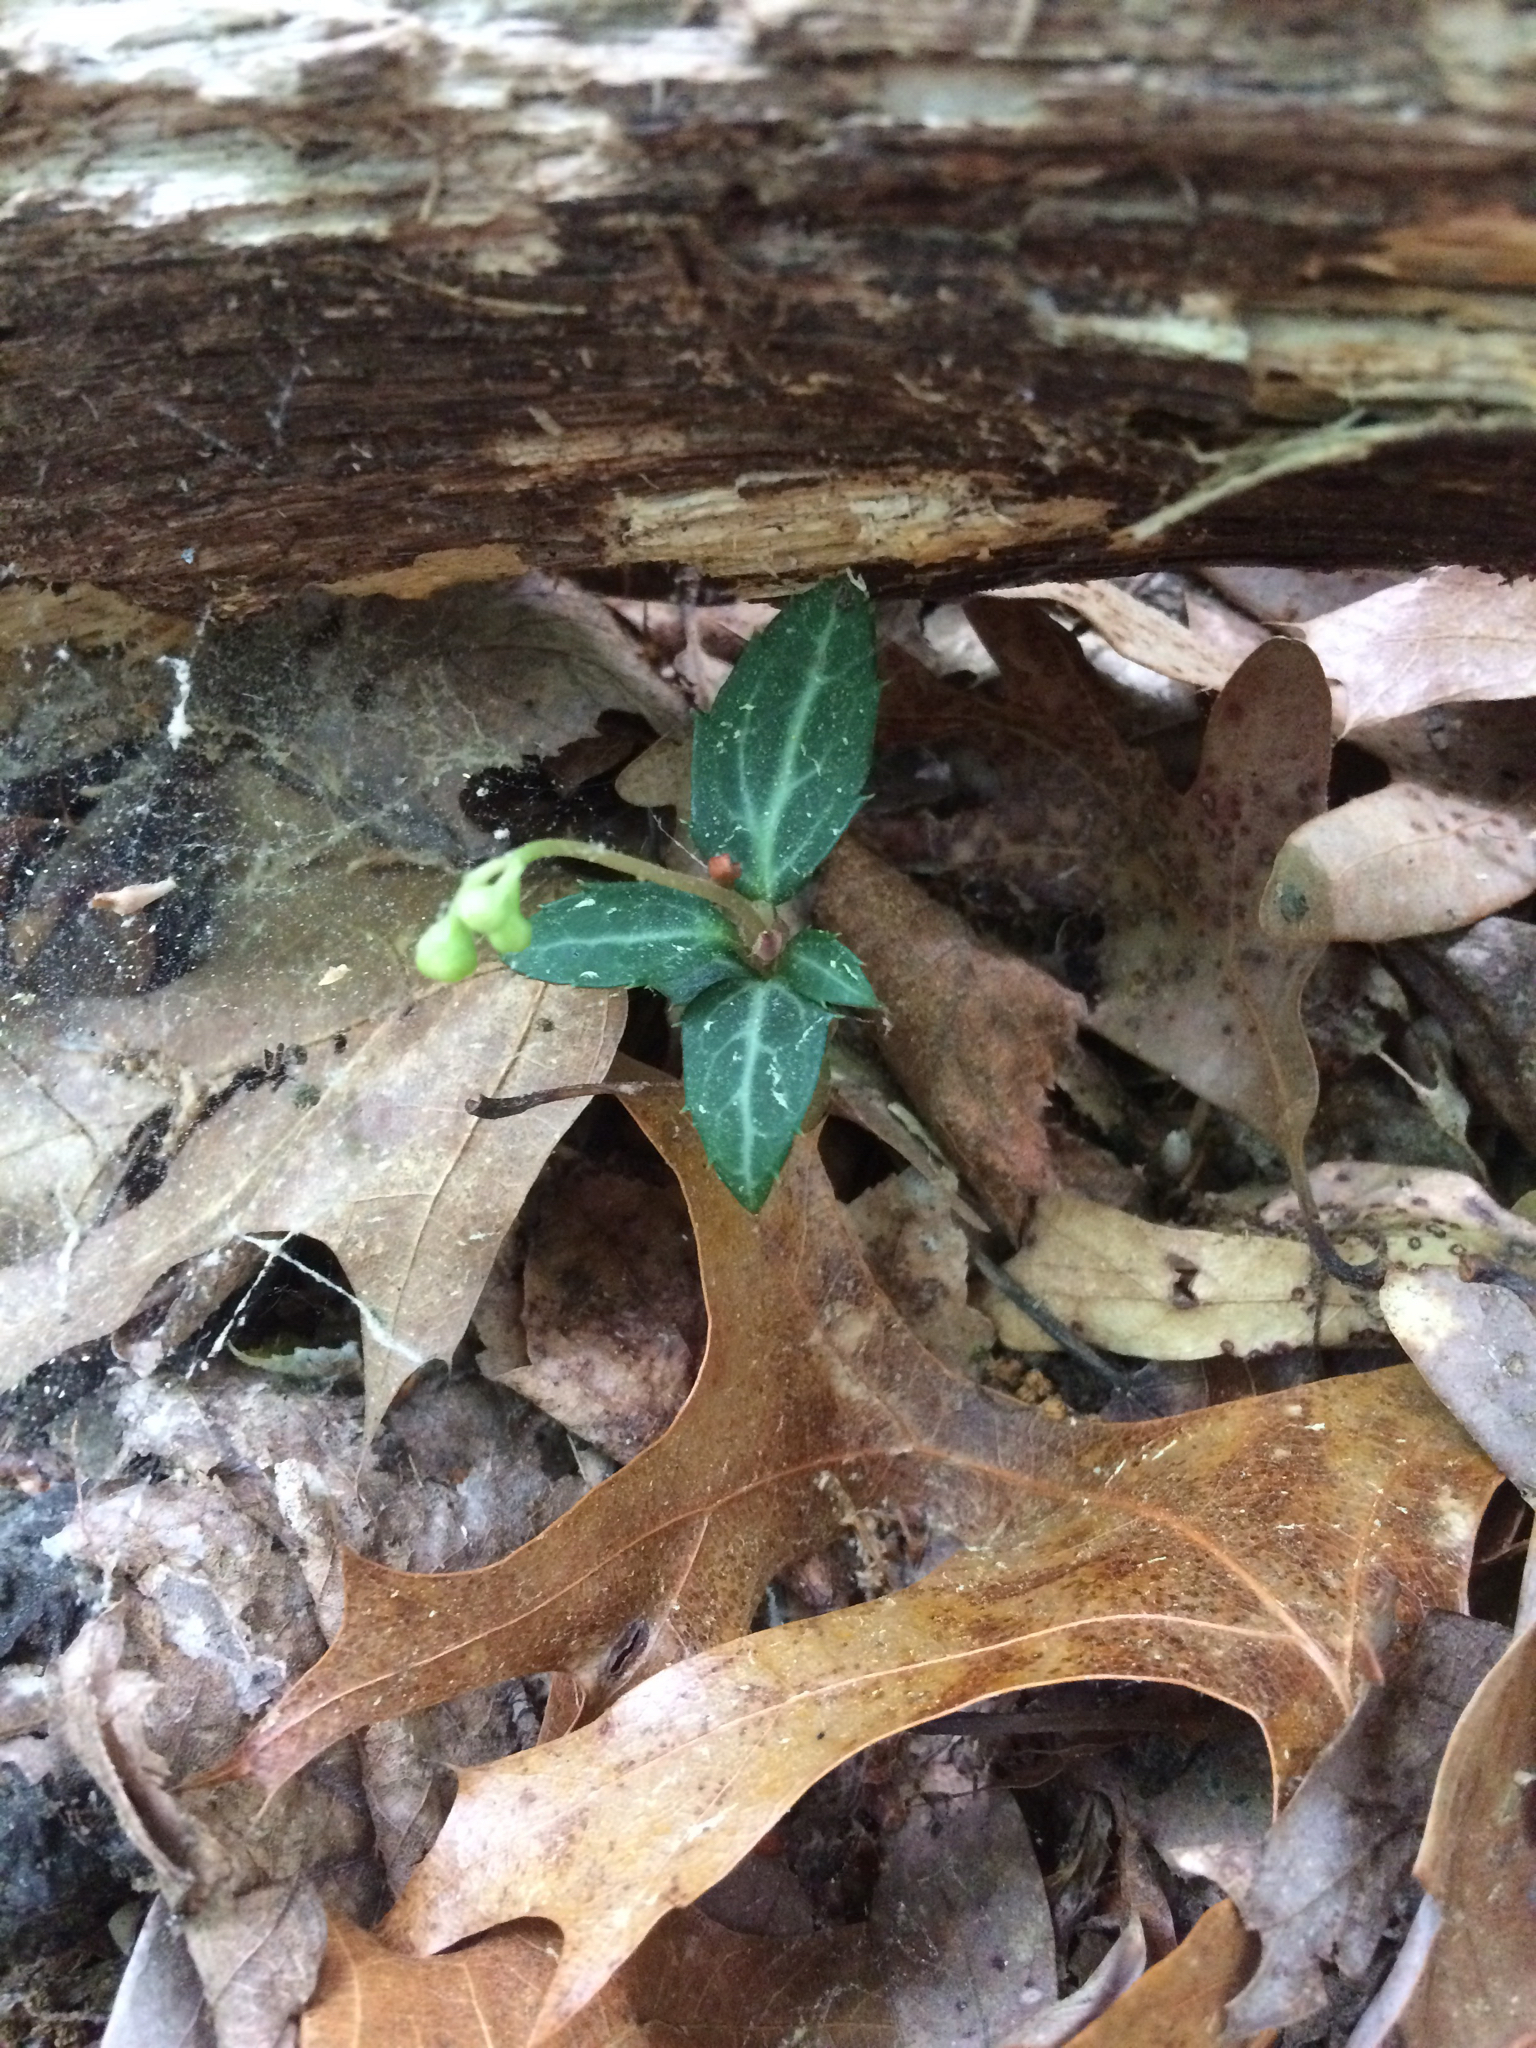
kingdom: Plantae
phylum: Tracheophyta
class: Magnoliopsida
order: Ericales
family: Ericaceae
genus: Chimaphila
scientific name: Chimaphila maculata
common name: Spotted pipsissewa
